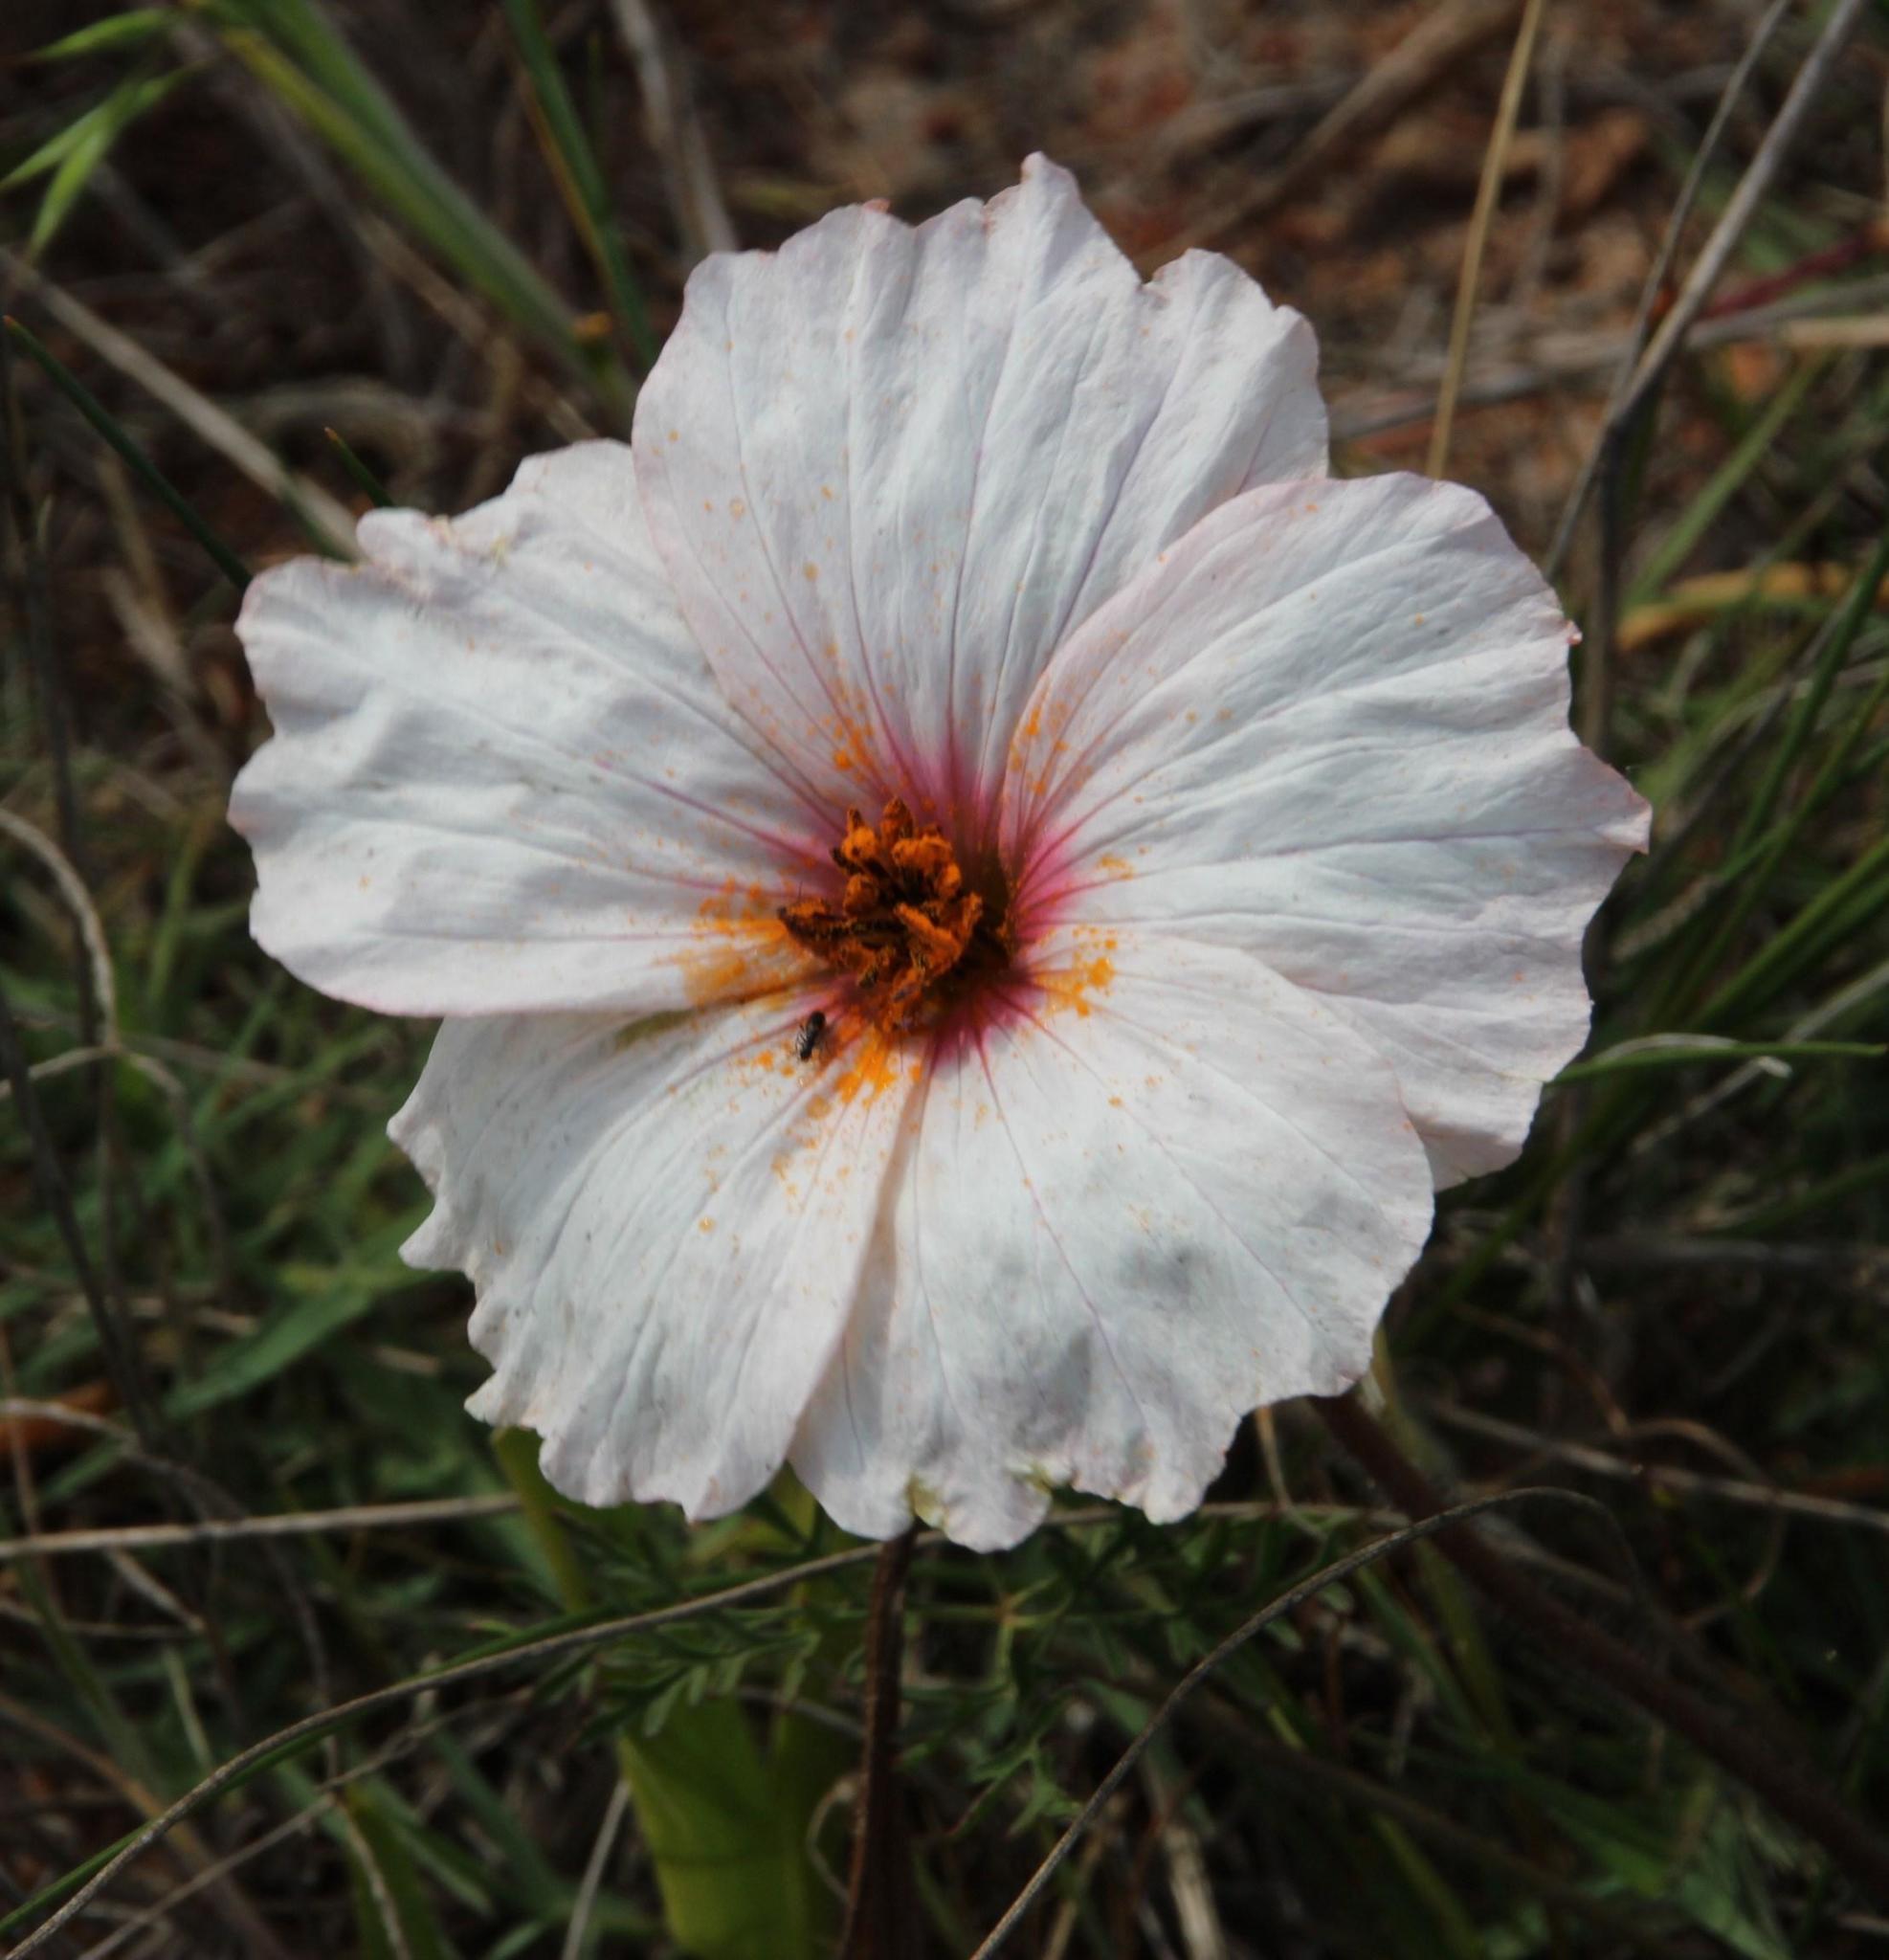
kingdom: Plantae
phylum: Tracheophyta
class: Magnoliopsida
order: Geraniales
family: Geraniaceae
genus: Monsonia
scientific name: Monsonia speciosa
